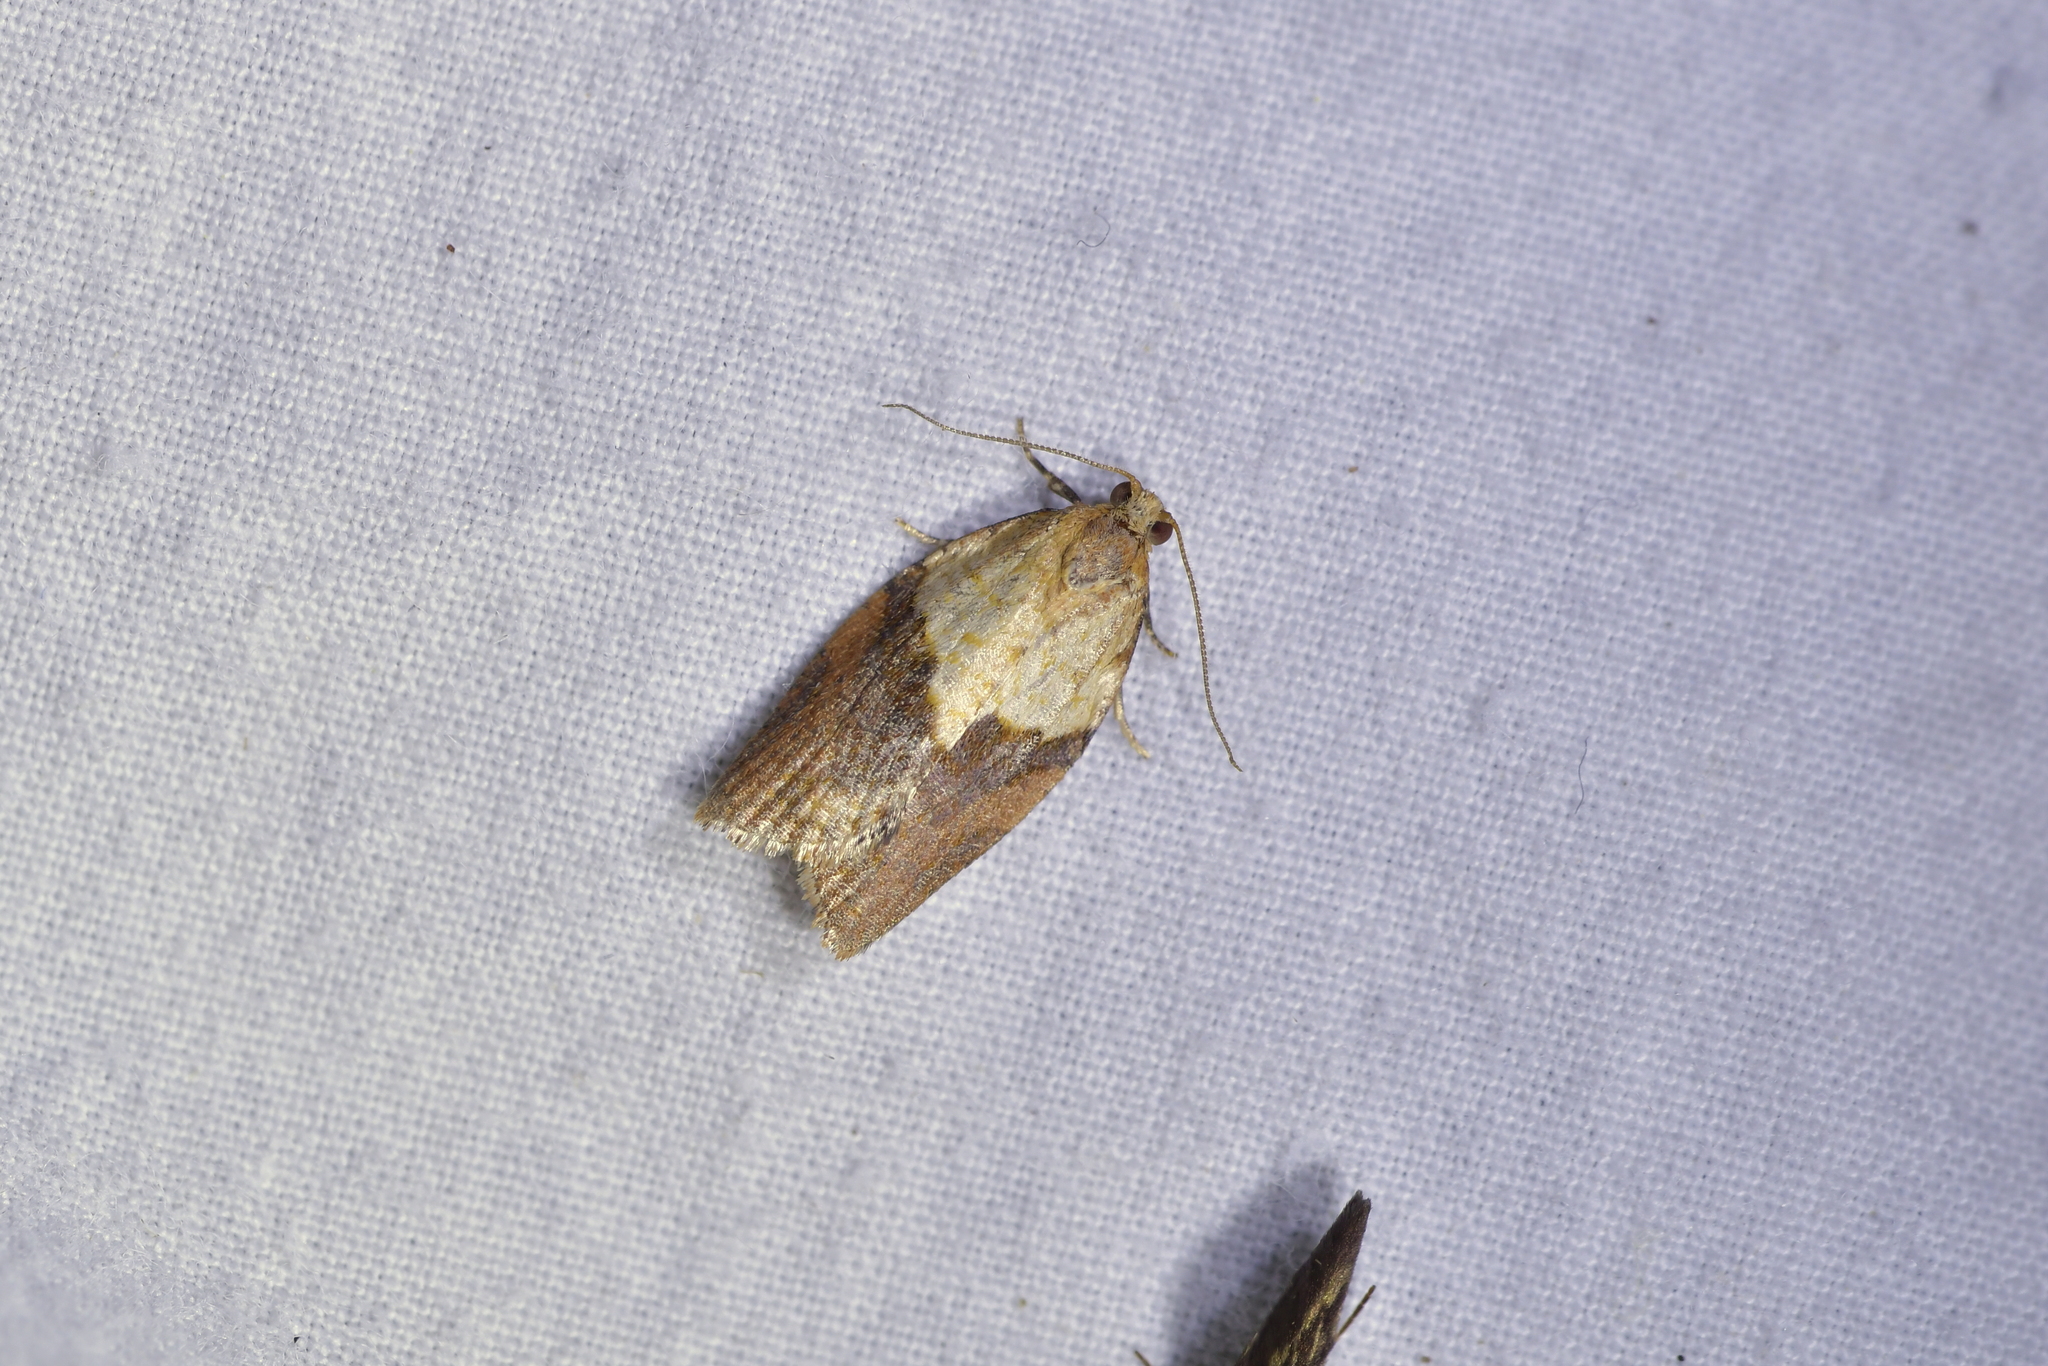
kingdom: Animalia
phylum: Arthropoda
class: Insecta
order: Lepidoptera
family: Tortricidae
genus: Epiphyas
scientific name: Epiphyas postvittana
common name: Light brown apple moth
